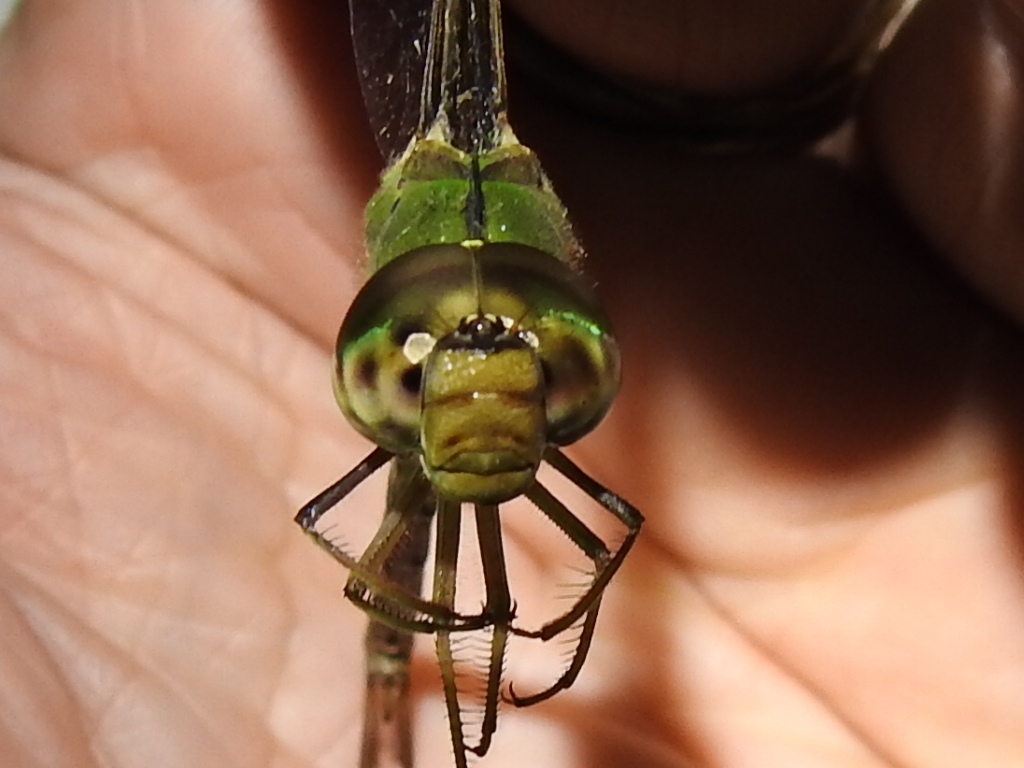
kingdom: Animalia
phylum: Arthropoda
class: Insecta
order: Odonata
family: Aeshnidae
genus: Gynacantha
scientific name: Gynacantha mexicana
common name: Bar-sided darner
